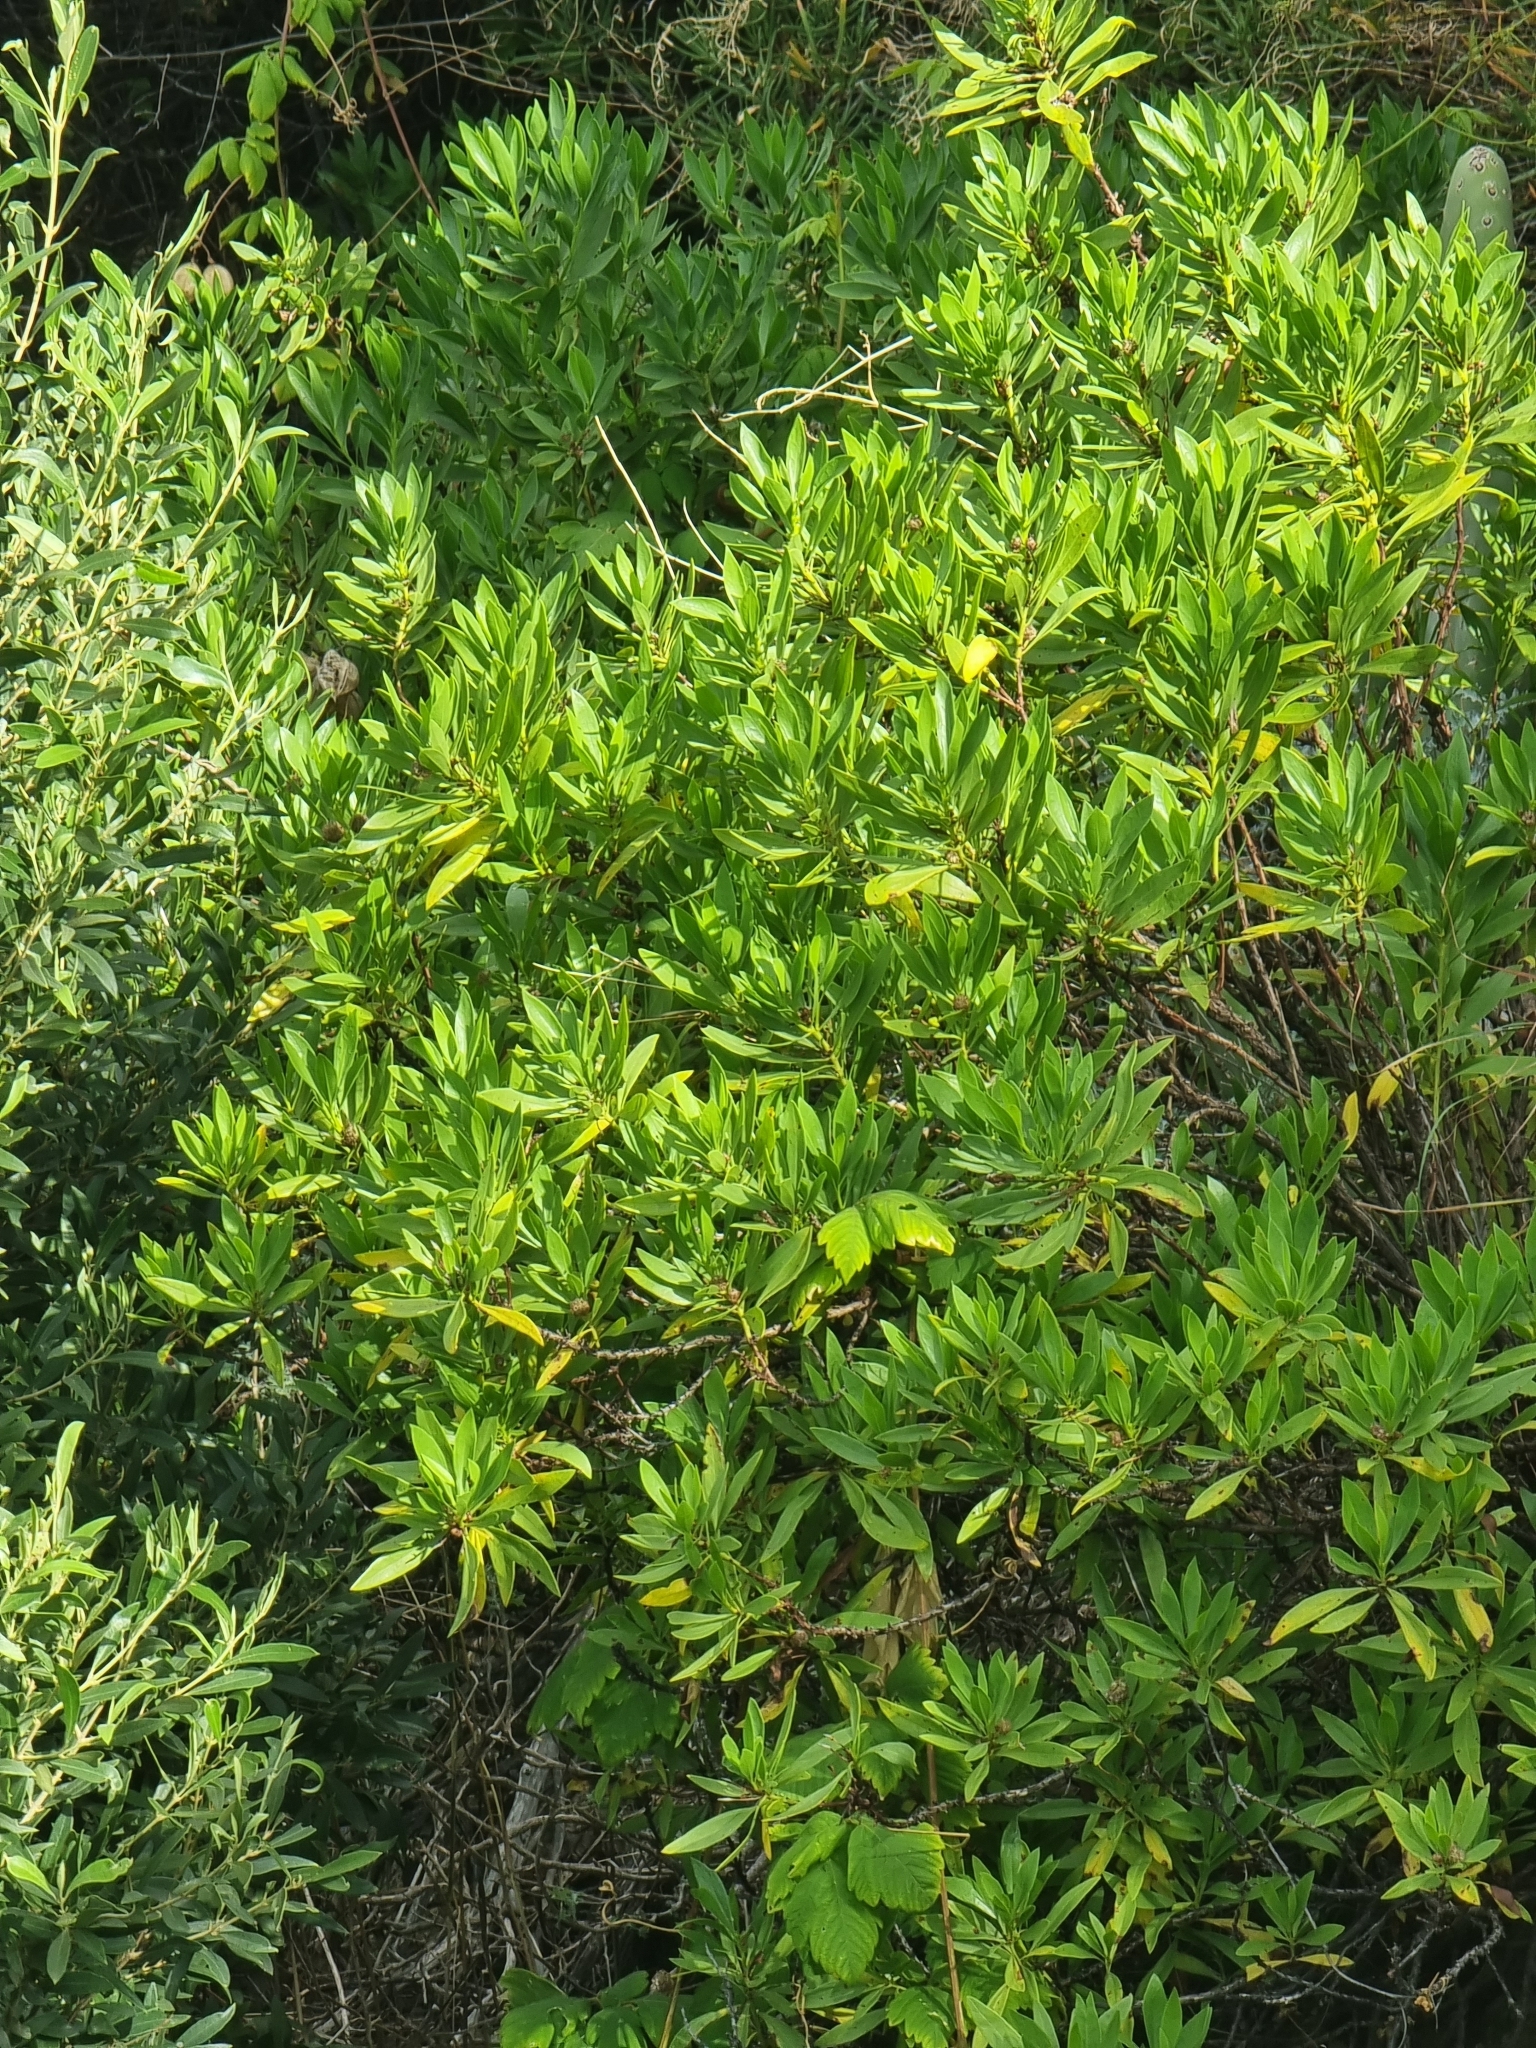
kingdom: Plantae
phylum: Tracheophyta
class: Magnoliopsida
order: Lamiales
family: Plantaginaceae
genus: Globularia
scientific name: Globularia salicina
